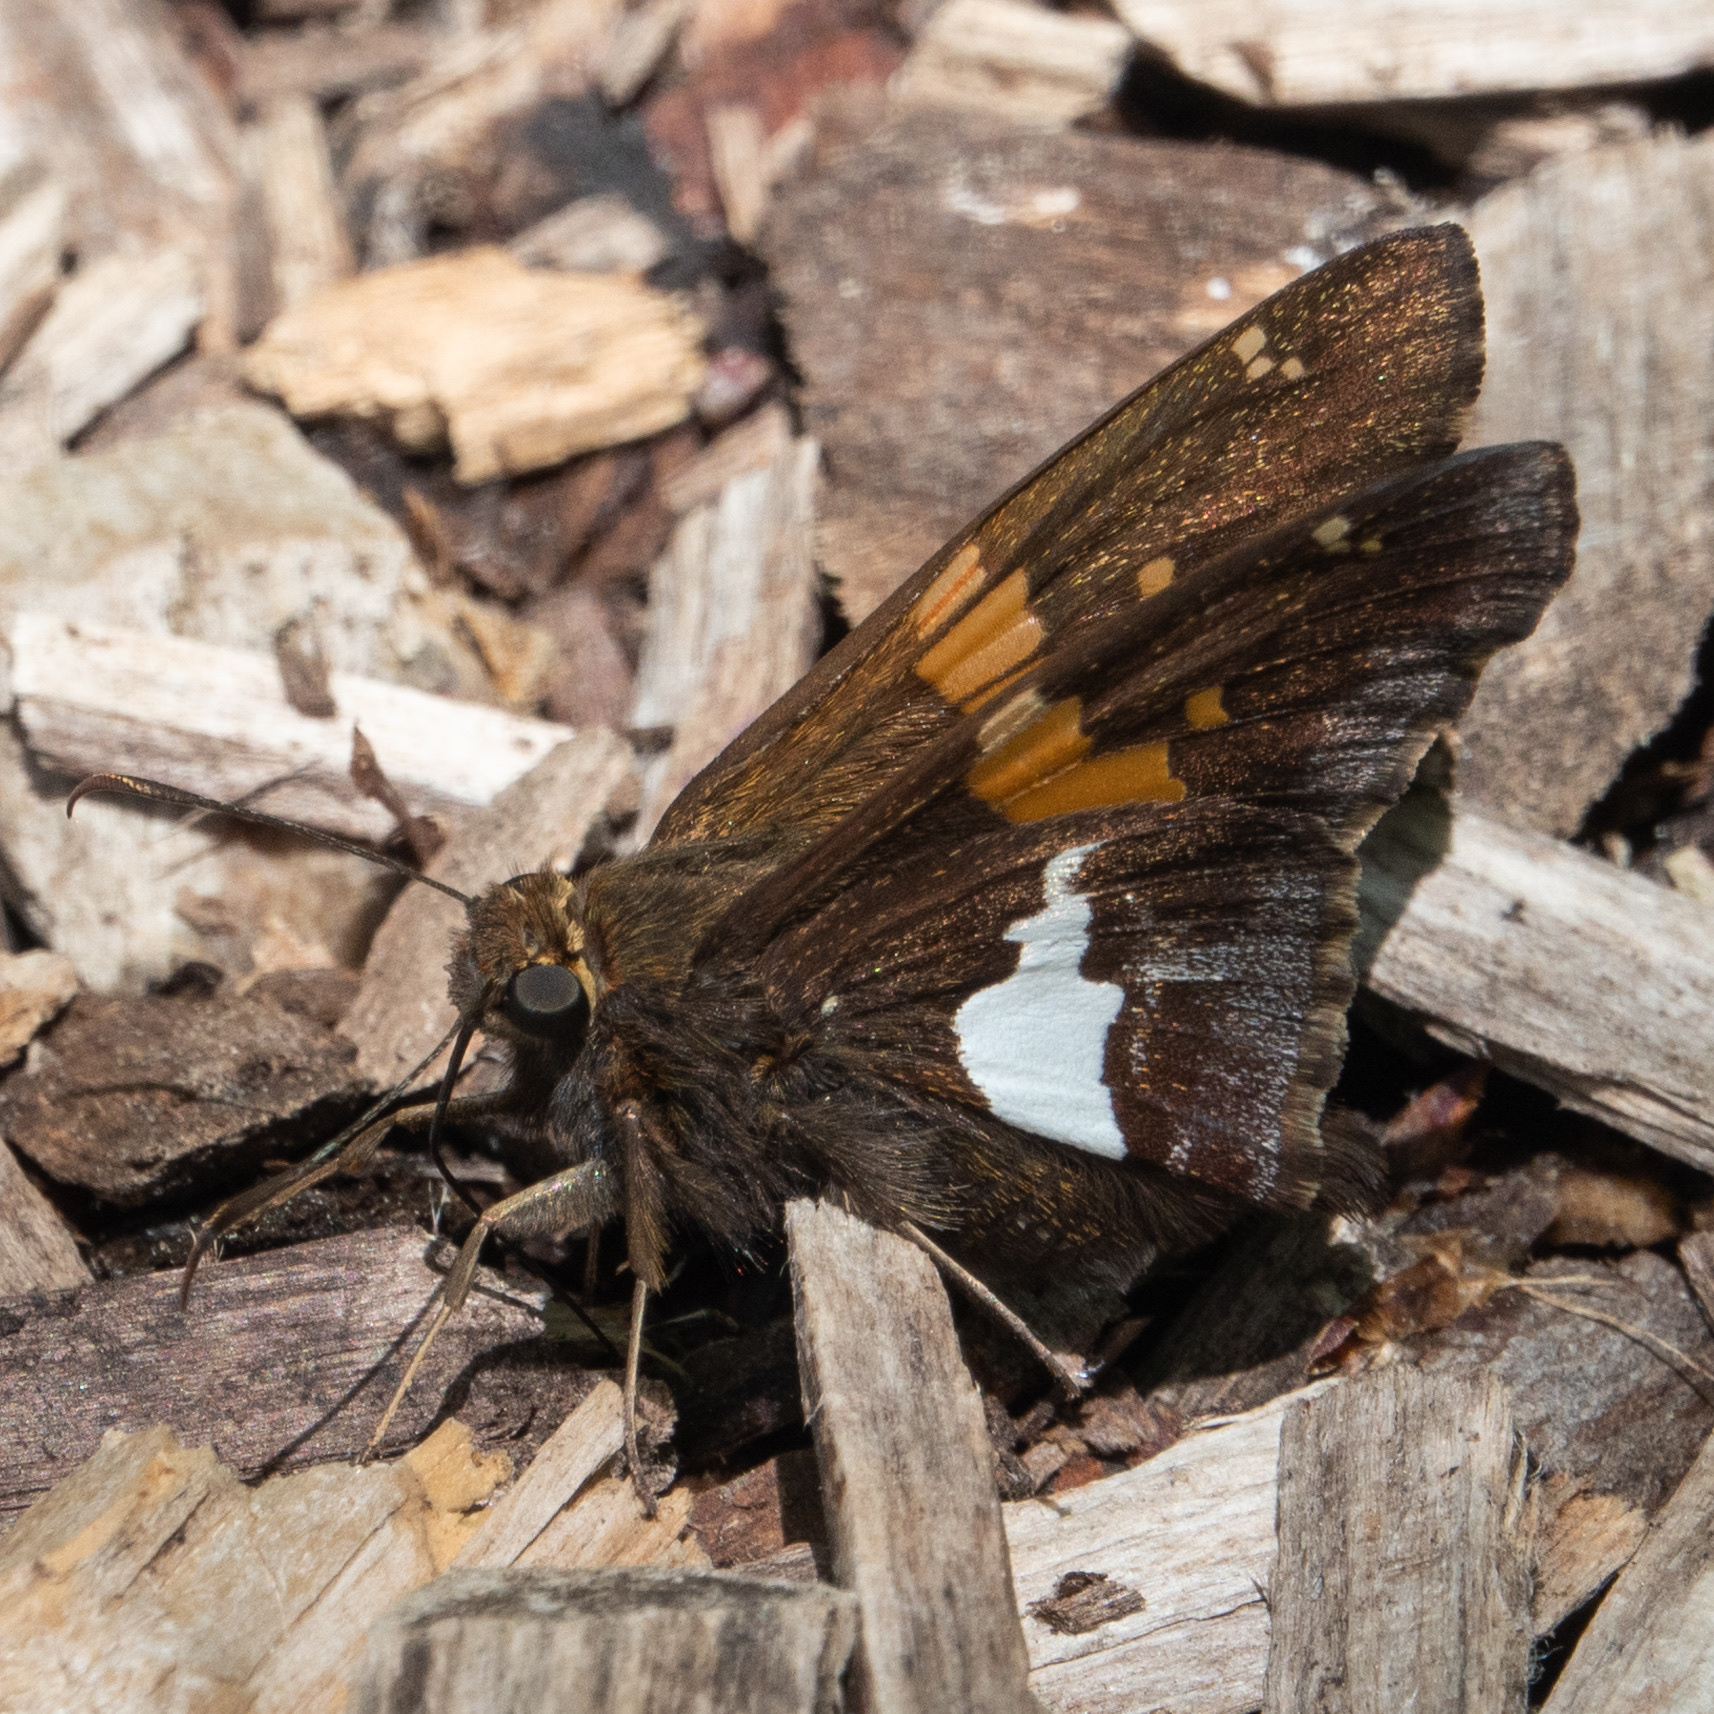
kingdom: Animalia
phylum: Arthropoda
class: Insecta
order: Lepidoptera
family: Hesperiidae
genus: Epargyreus
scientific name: Epargyreus clarus
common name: Silver-spotted skipper
